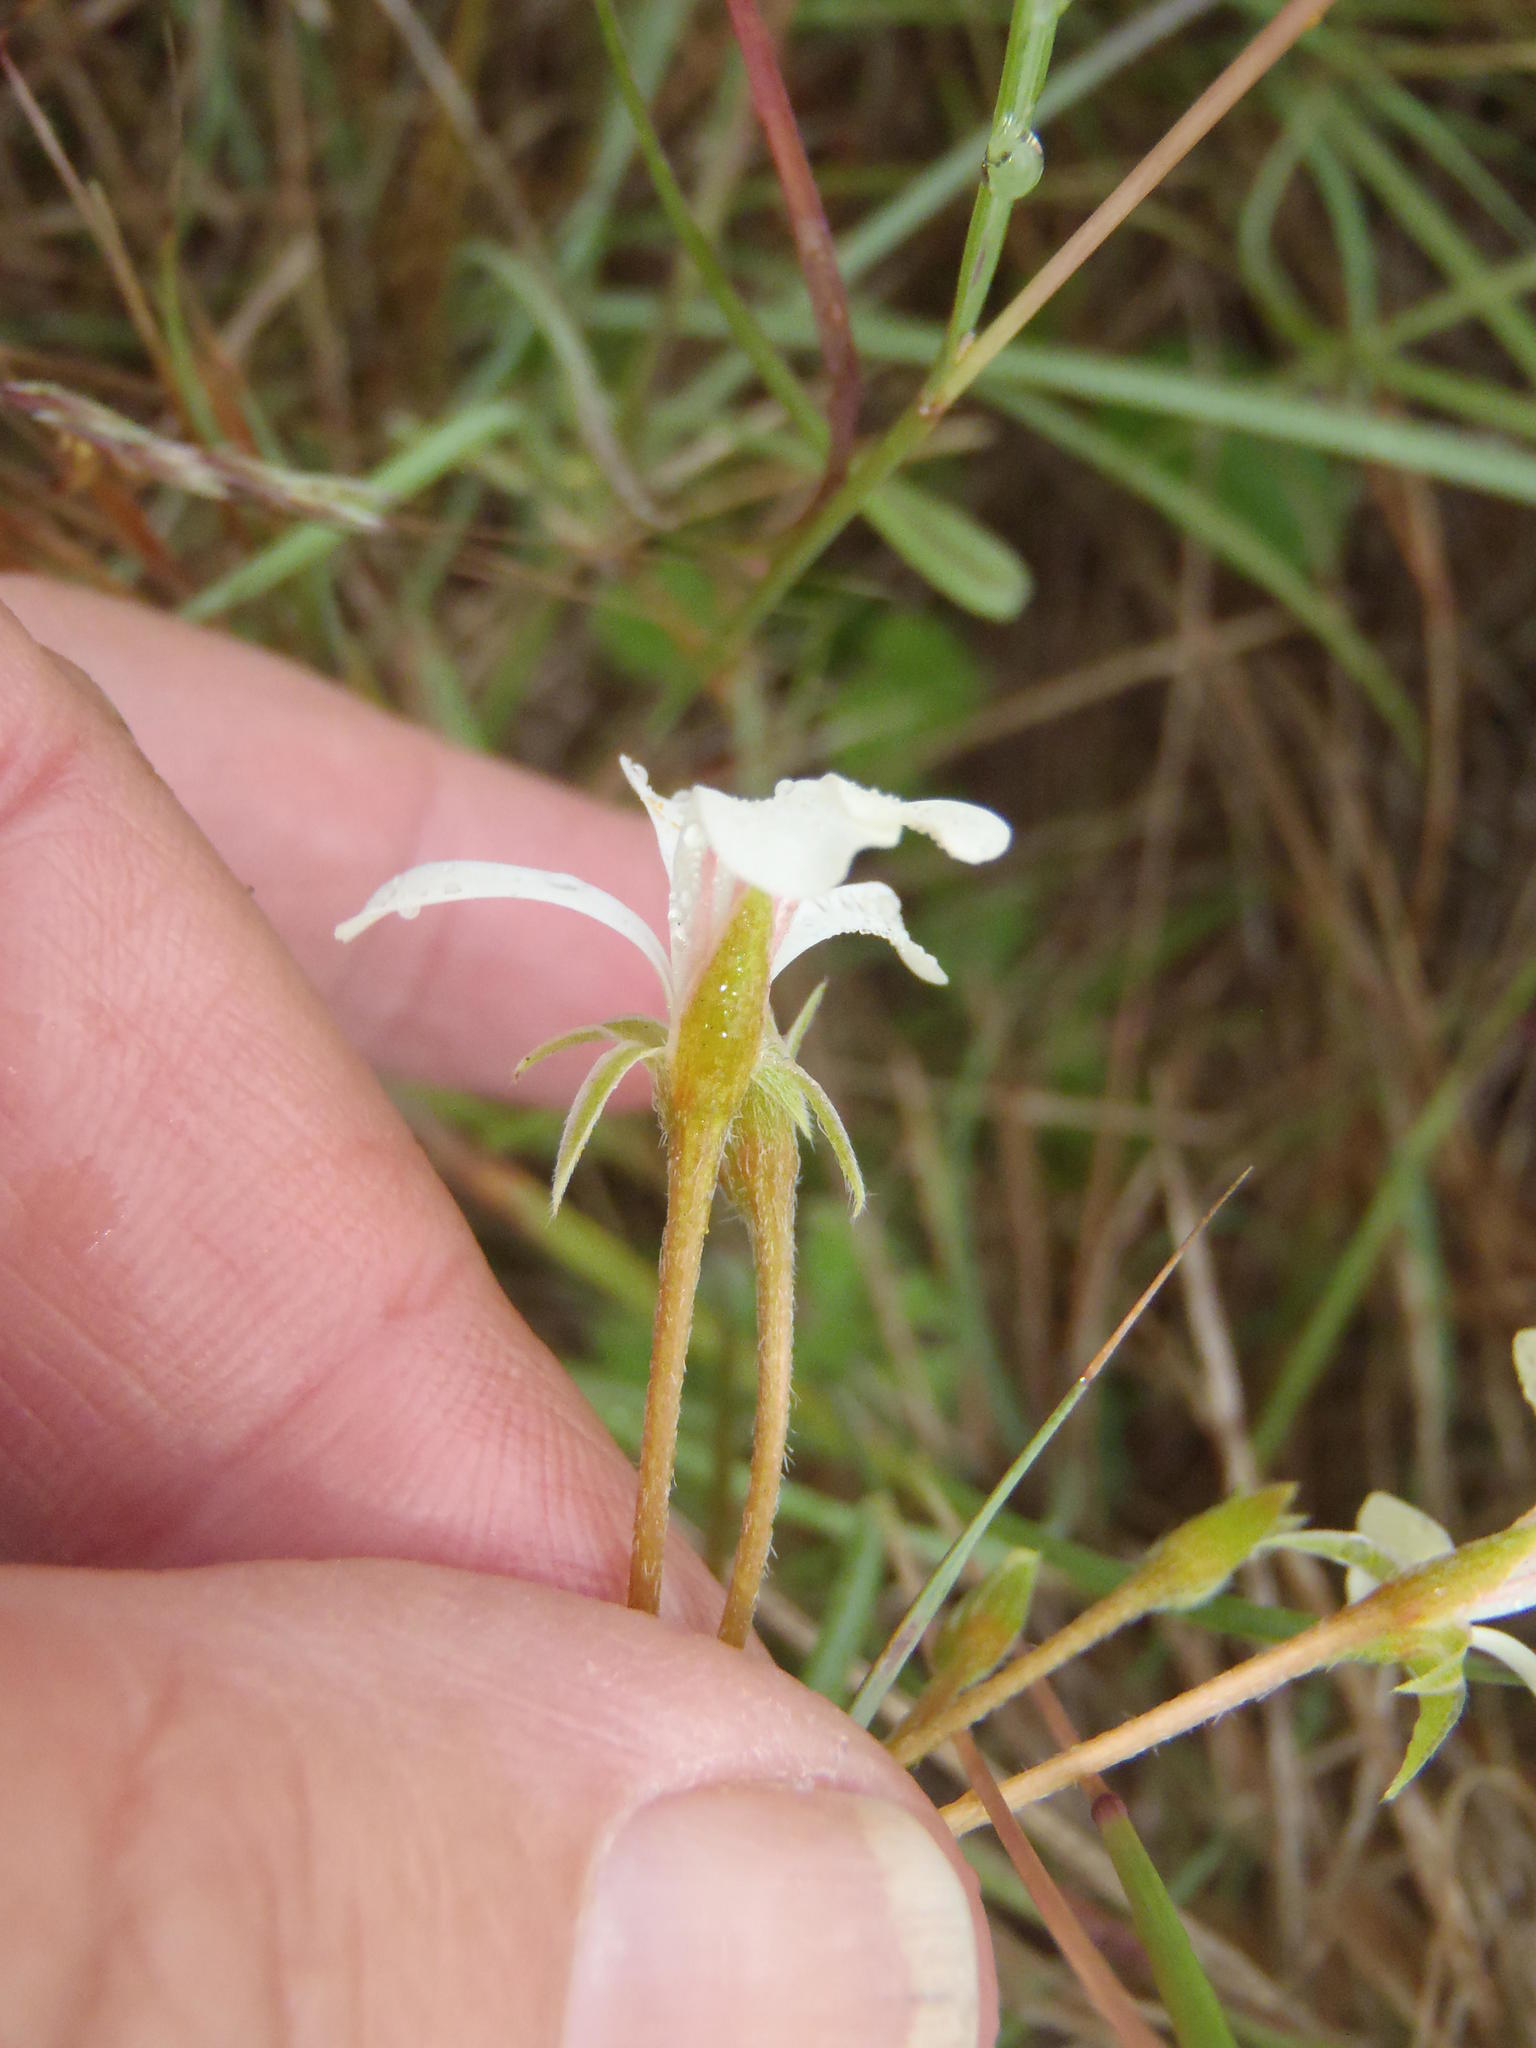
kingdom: Plantae
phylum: Tracheophyta
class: Magnoliopsida
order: Geraniales
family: Geraniaceae
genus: Pelargonium
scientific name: Pelargonium alchemilloides
